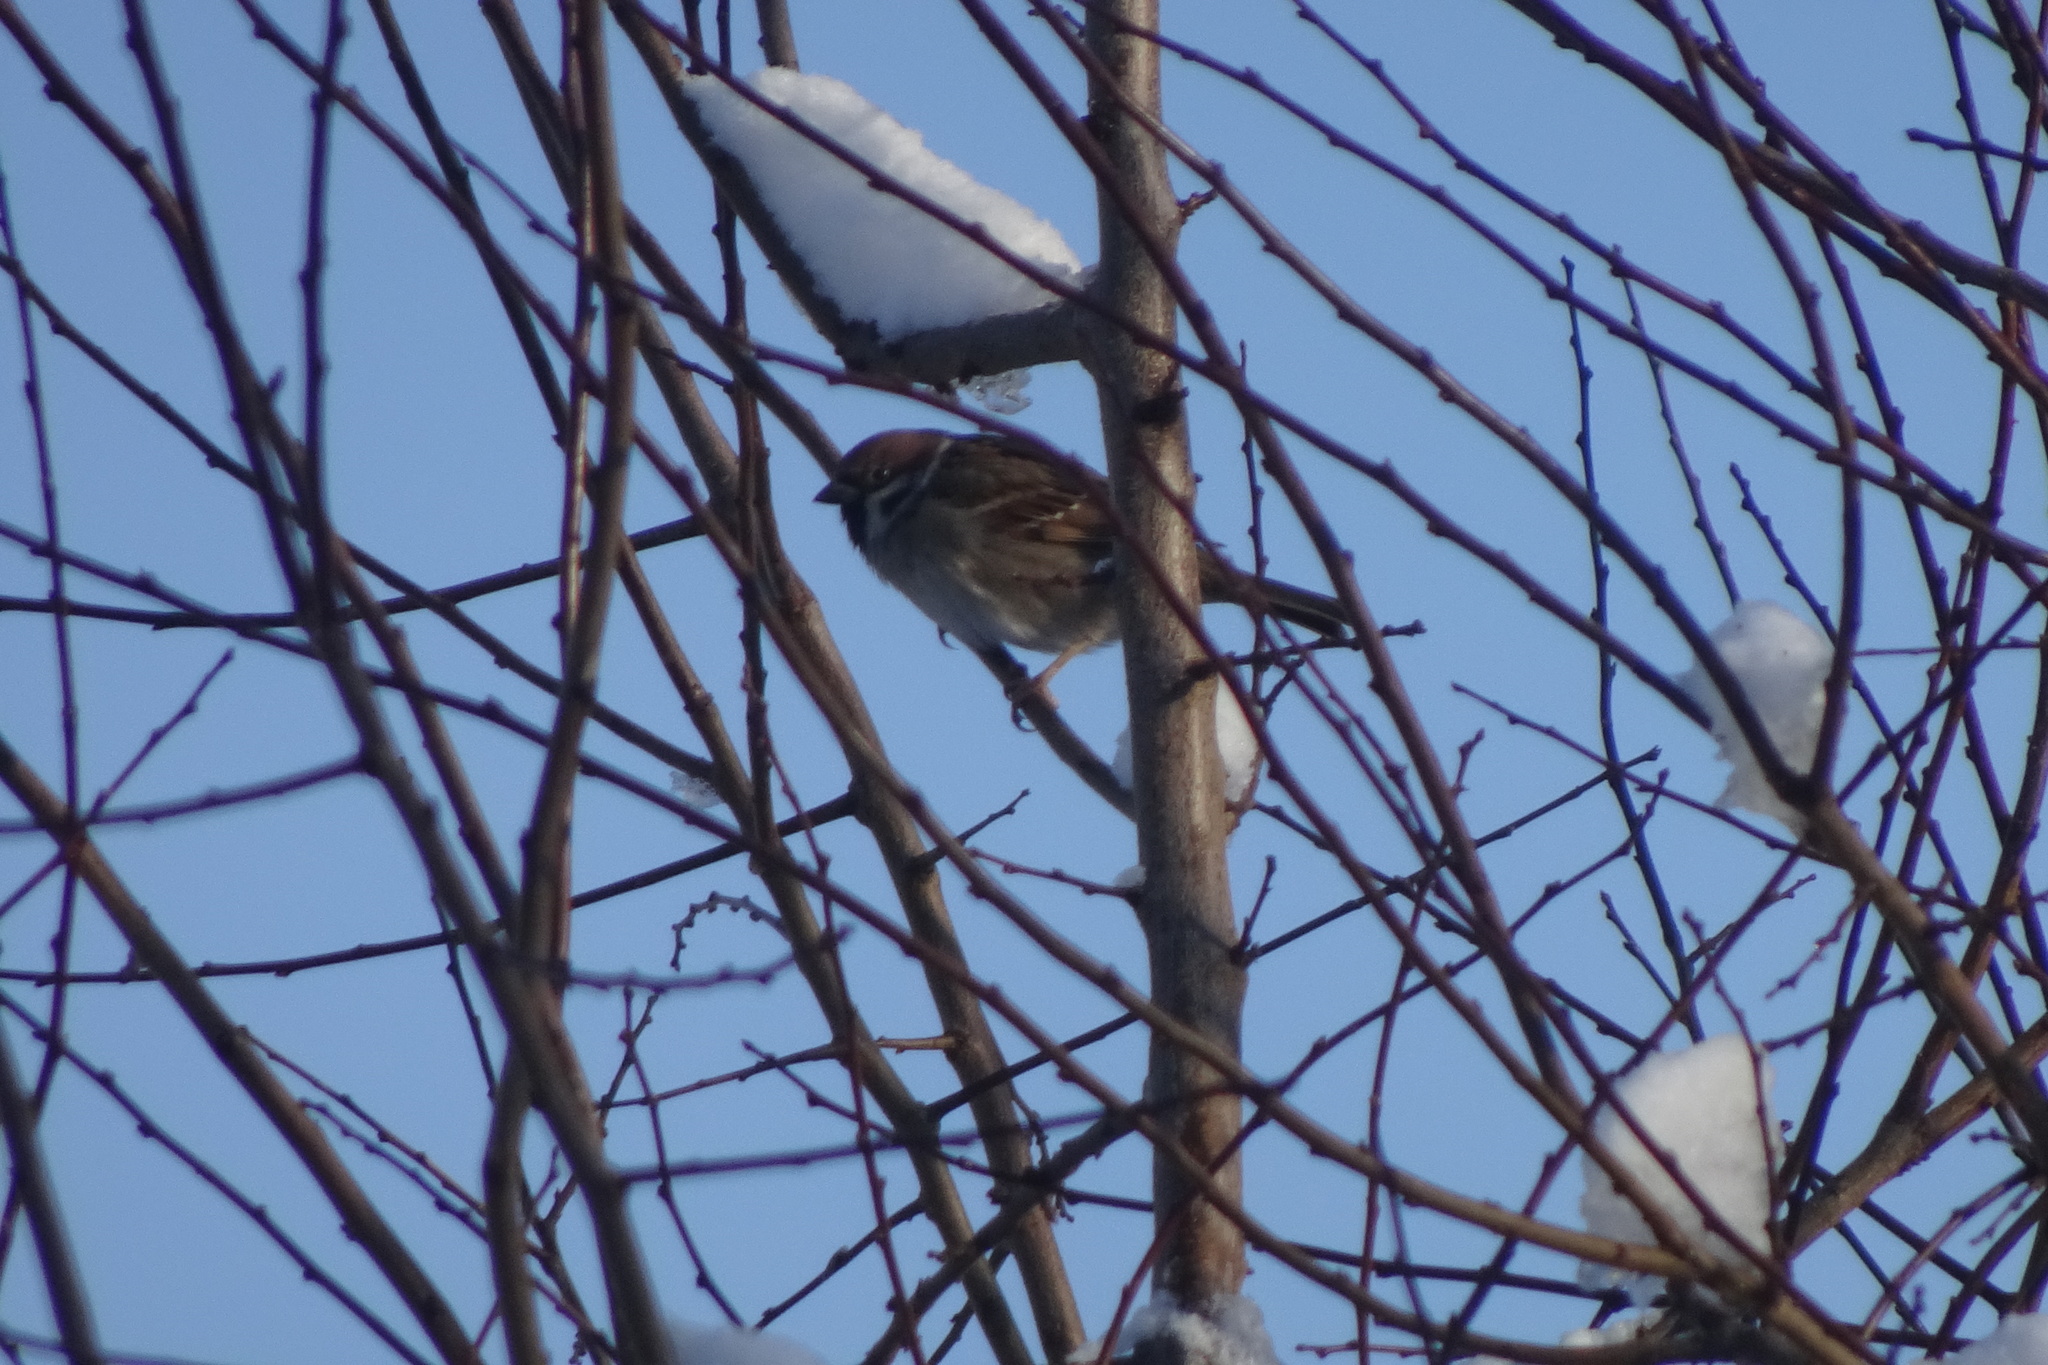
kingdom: Animalia
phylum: Chordata
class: Aves
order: Passeriformes
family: Passeridae
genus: Passer
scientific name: Passer montanus
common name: Eurasian tree sparrow
